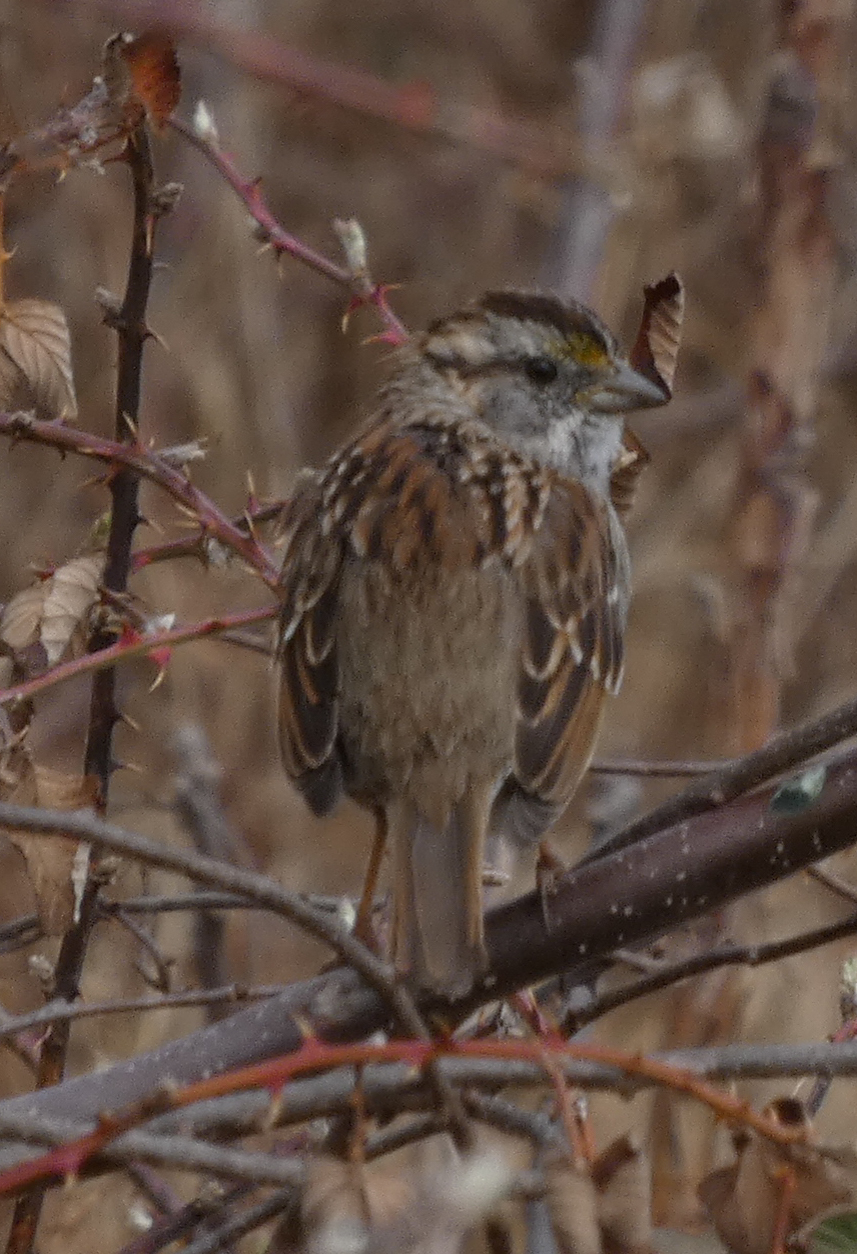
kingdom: Animalia
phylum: Chordata
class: Aves
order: Passeriformes
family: Passerellidae
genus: Zonotrichia
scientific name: Zonotrichia albicollis
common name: White-throated sparrow
